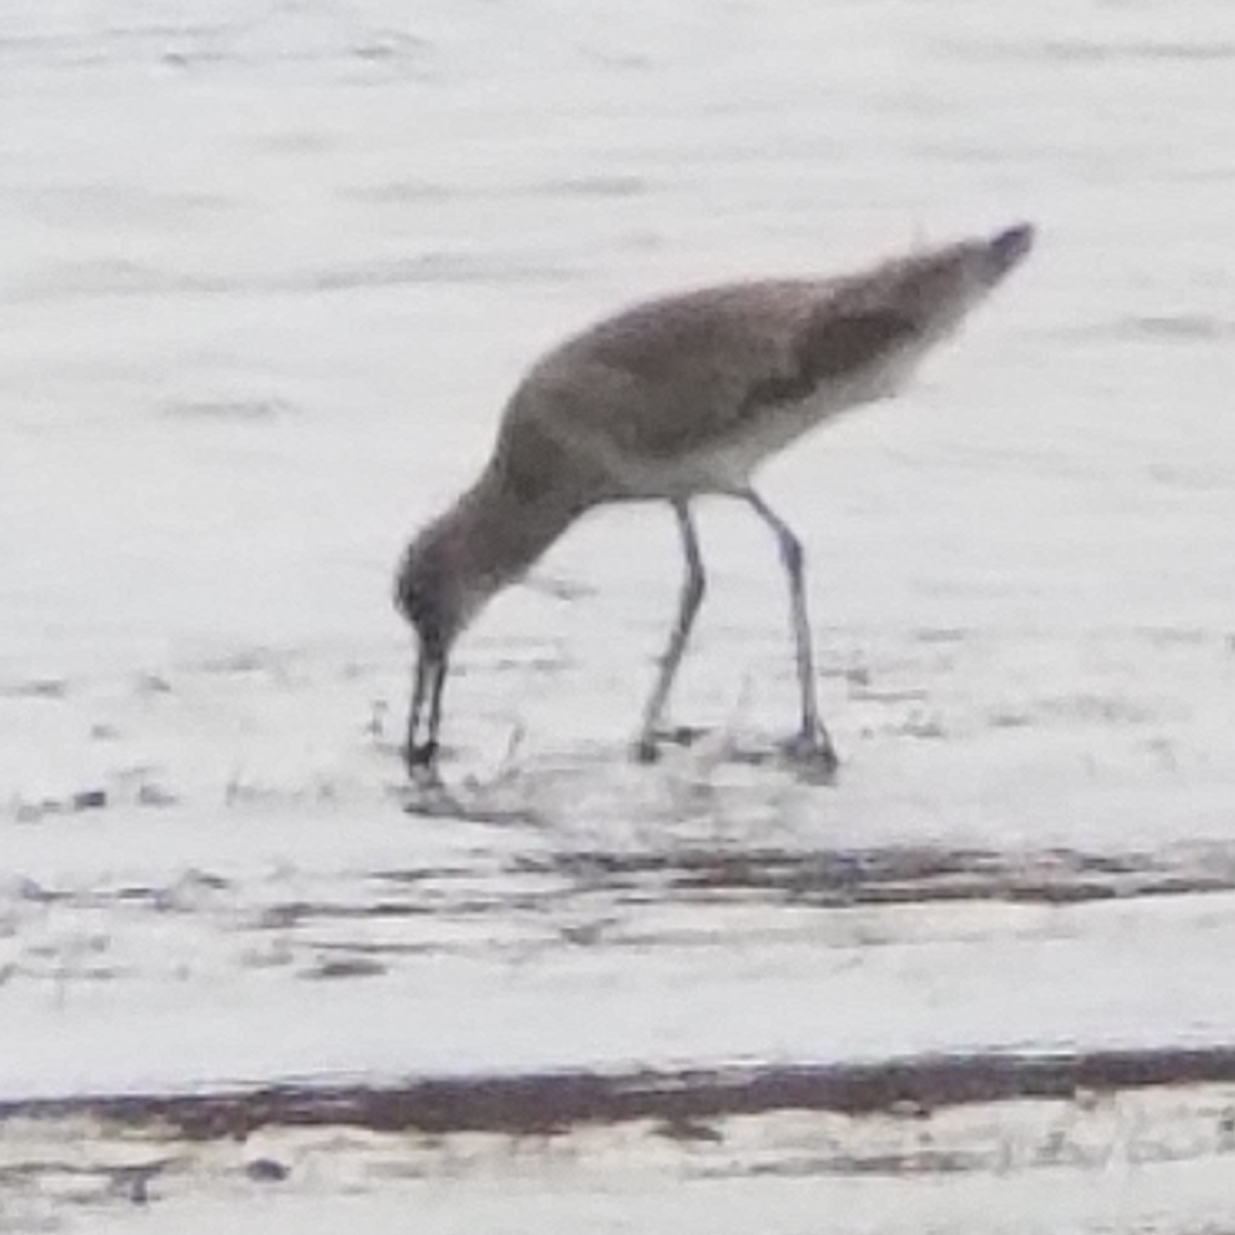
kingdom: Animalia
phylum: Chordata
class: Aves
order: Charadriiformes
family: Scolopacidae
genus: Tringa
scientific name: Tringa semipalmata
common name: Willet
